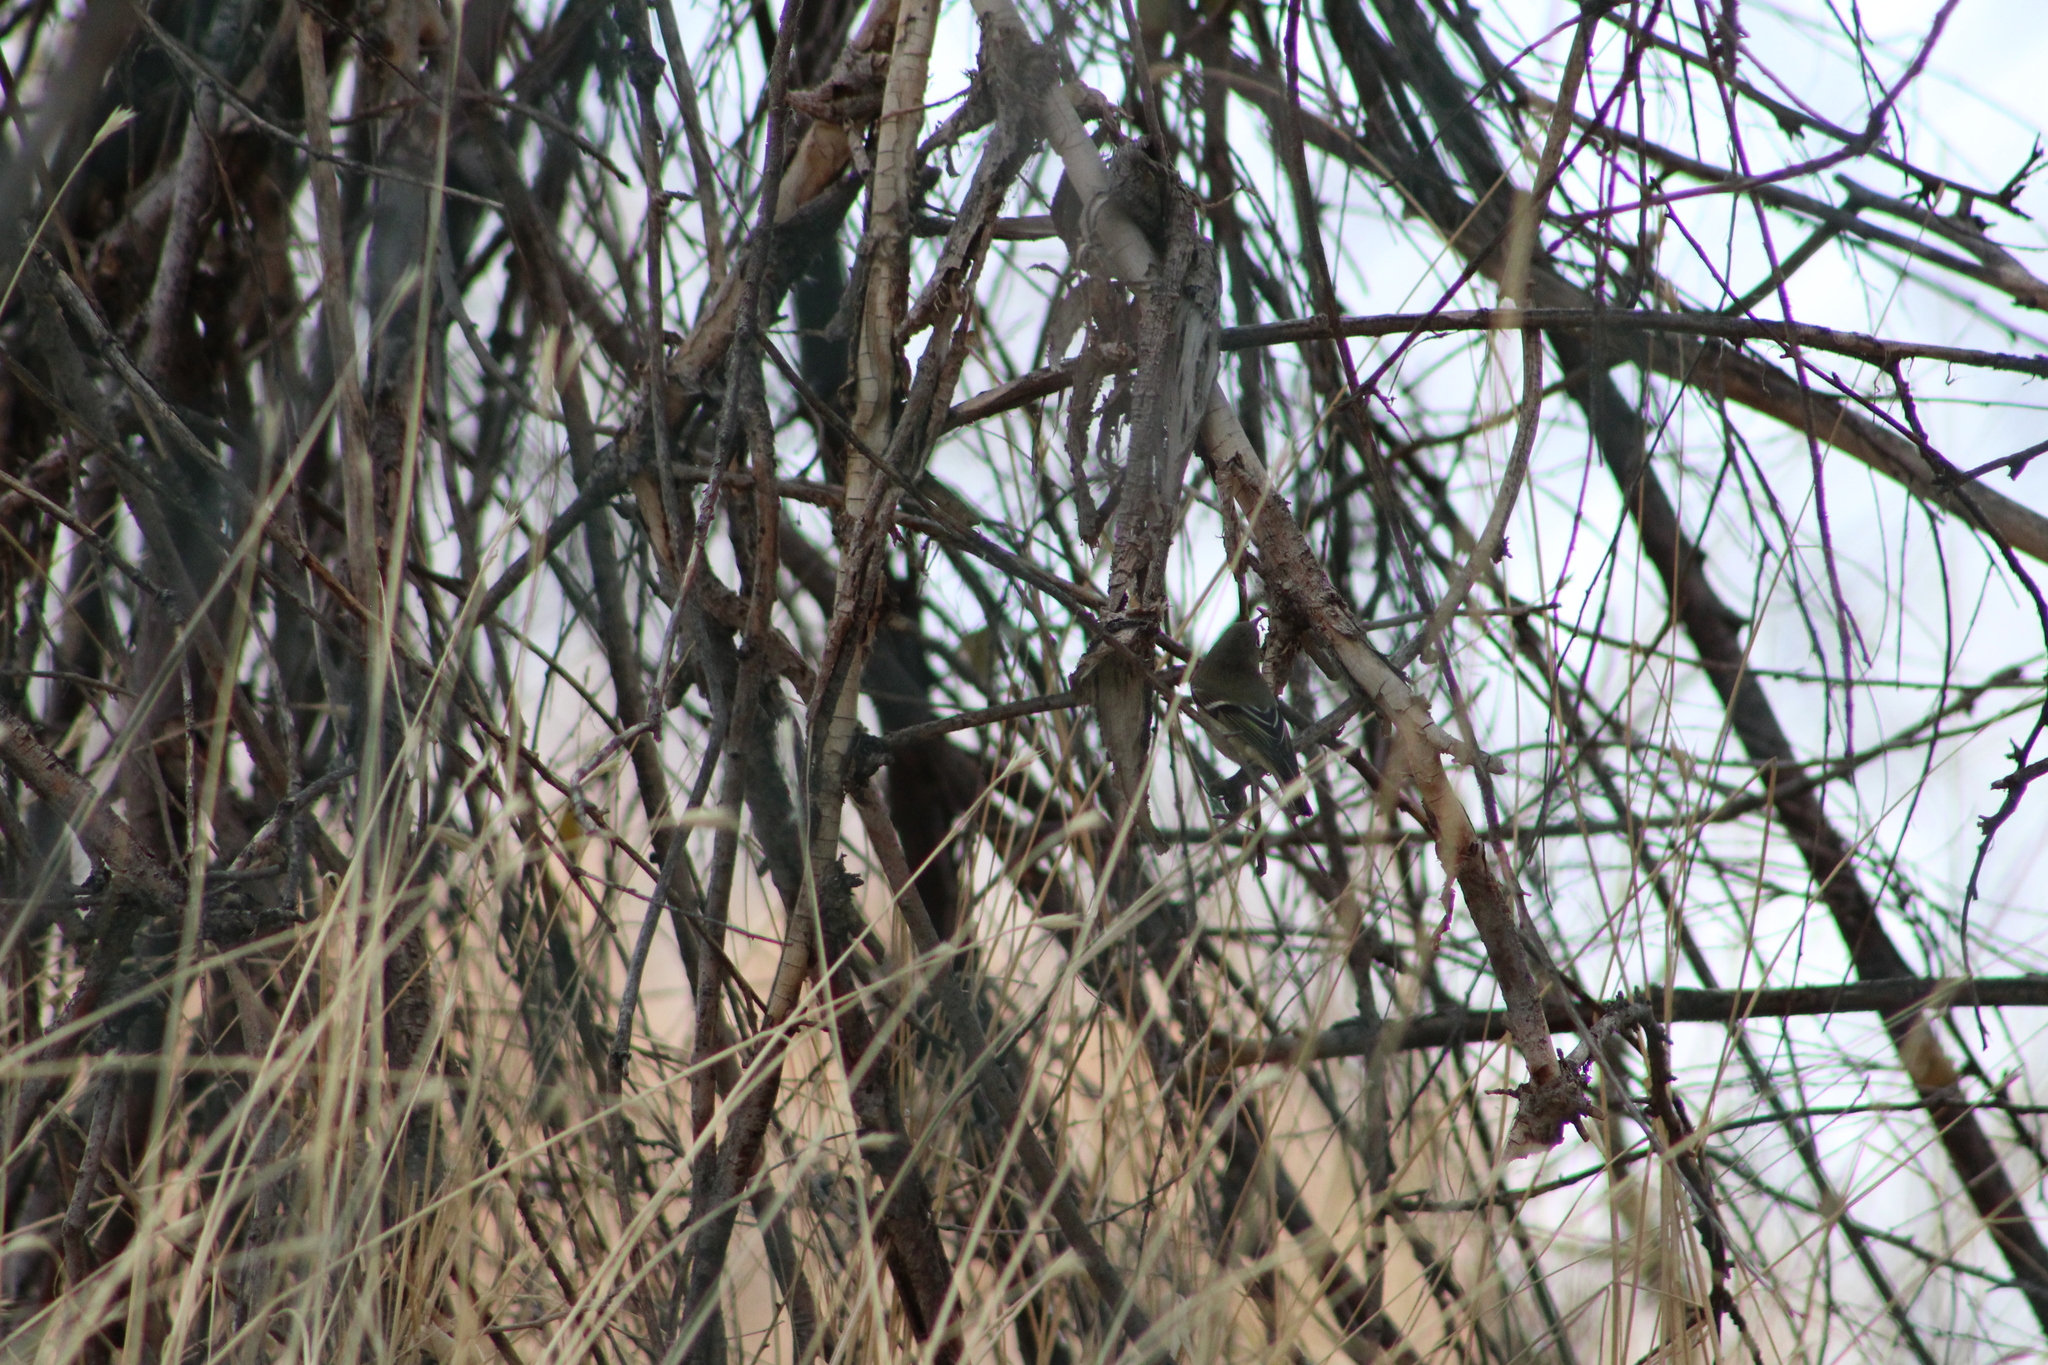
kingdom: Animalia
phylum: Chordata
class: Aves
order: Passeriformes
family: Regulidae
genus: Regulus
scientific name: Regulus calendula
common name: Ruby-crowned kinglet
